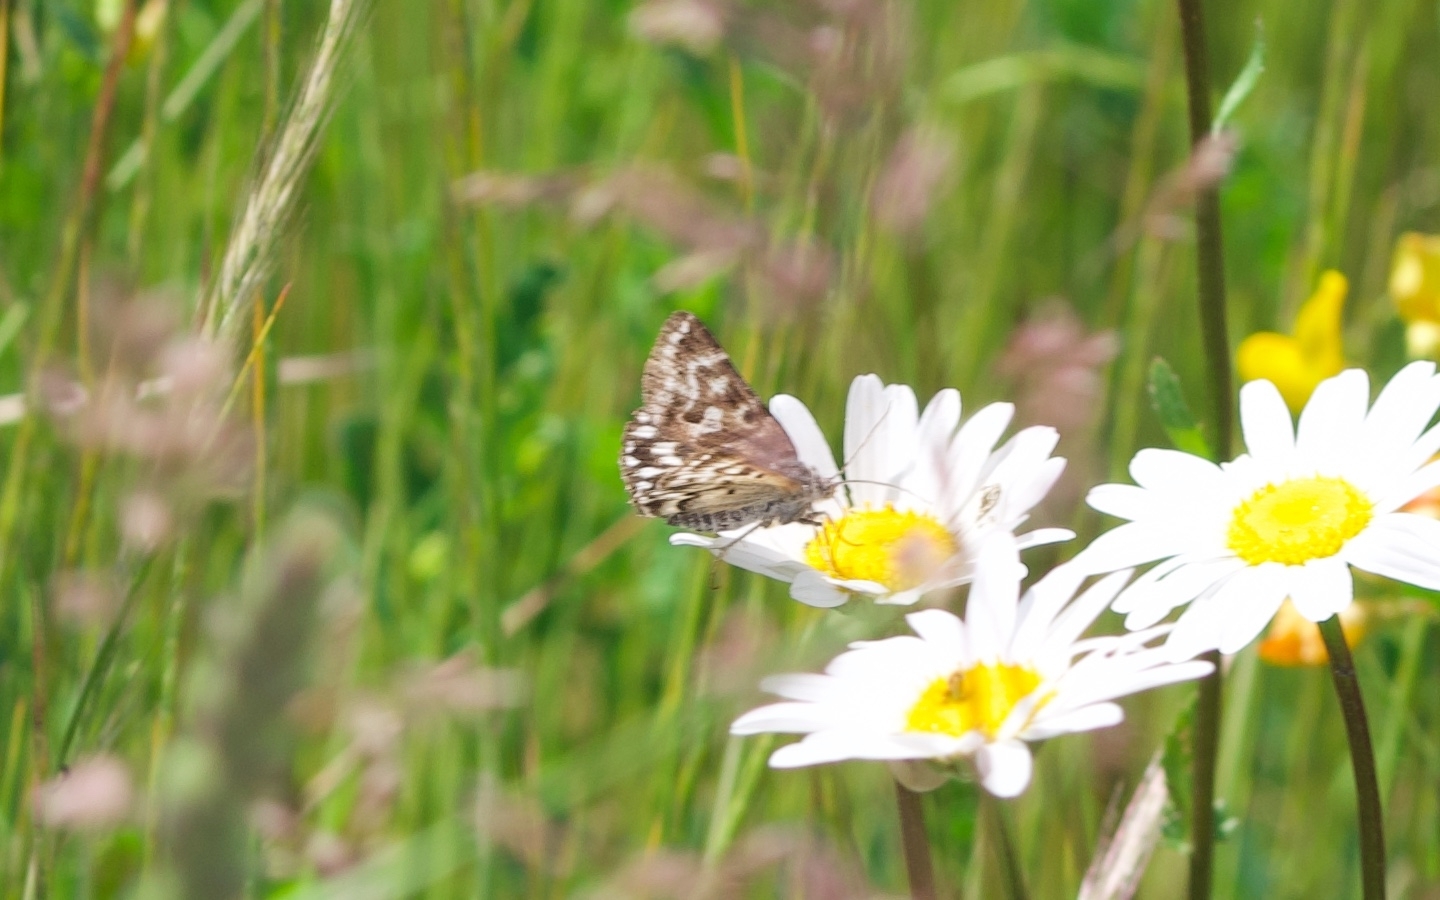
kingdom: Animalia
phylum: Arthropoda
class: Insecta
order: Lepidoptera
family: Erebidae
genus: Callistege
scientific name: Callistege mi
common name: Mother shipton
